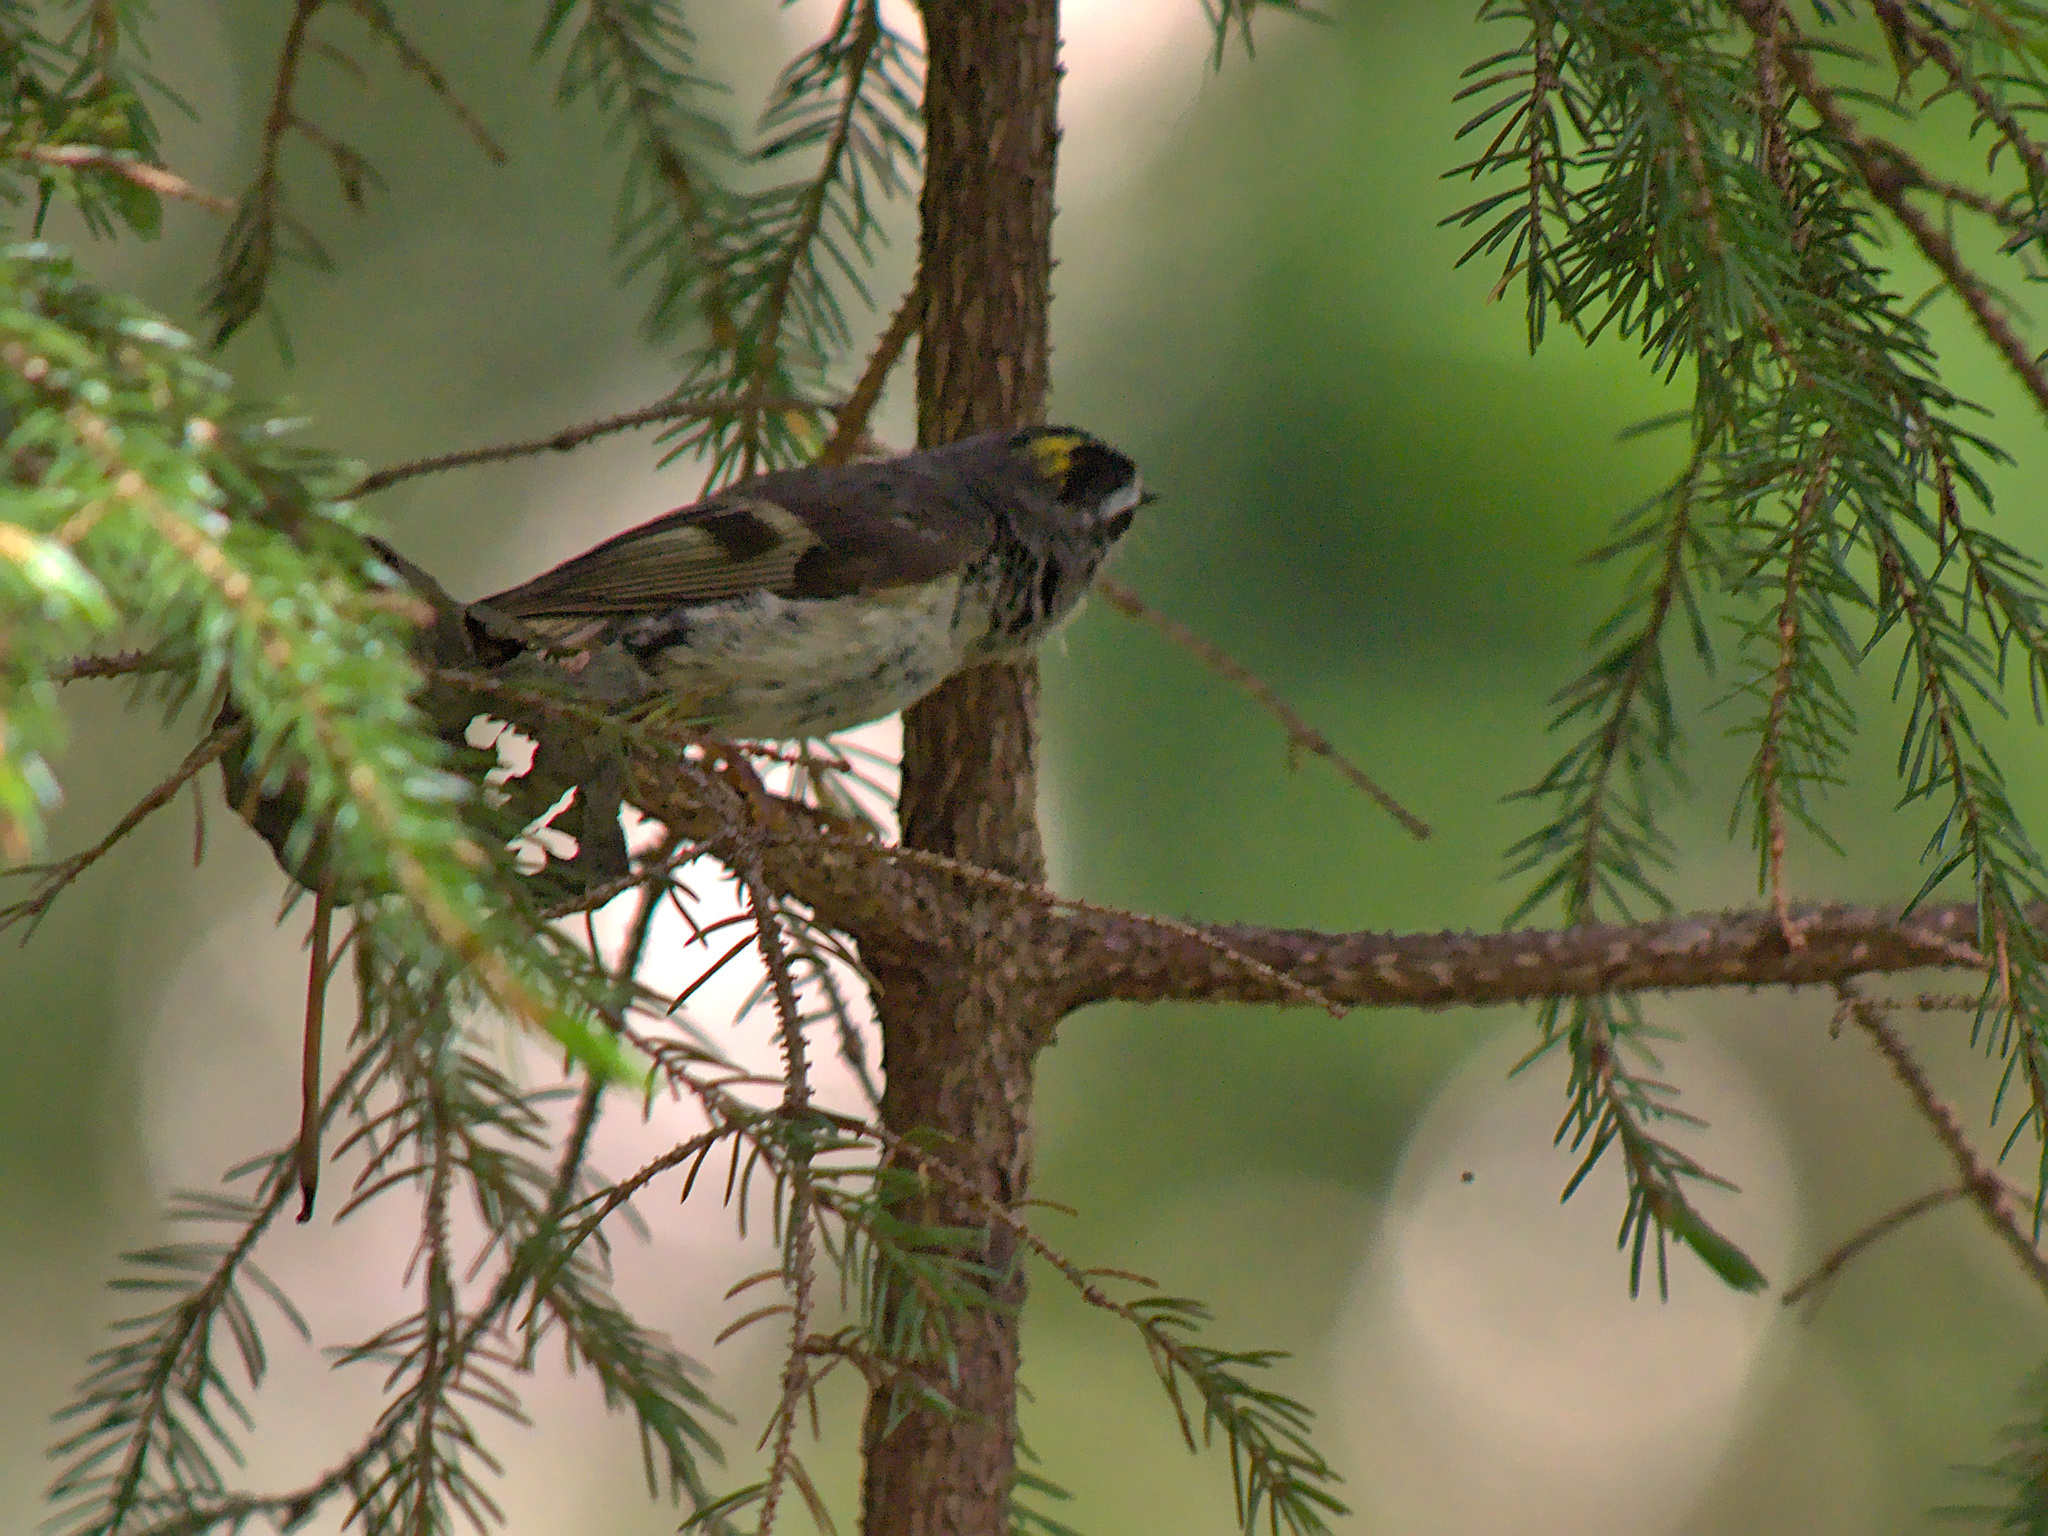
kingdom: Animalia
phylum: Chordata
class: Aves
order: Passeriformes
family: Regulidae
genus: Regulus
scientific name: Regulus satrapa
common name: Golden-crowned kinglet
